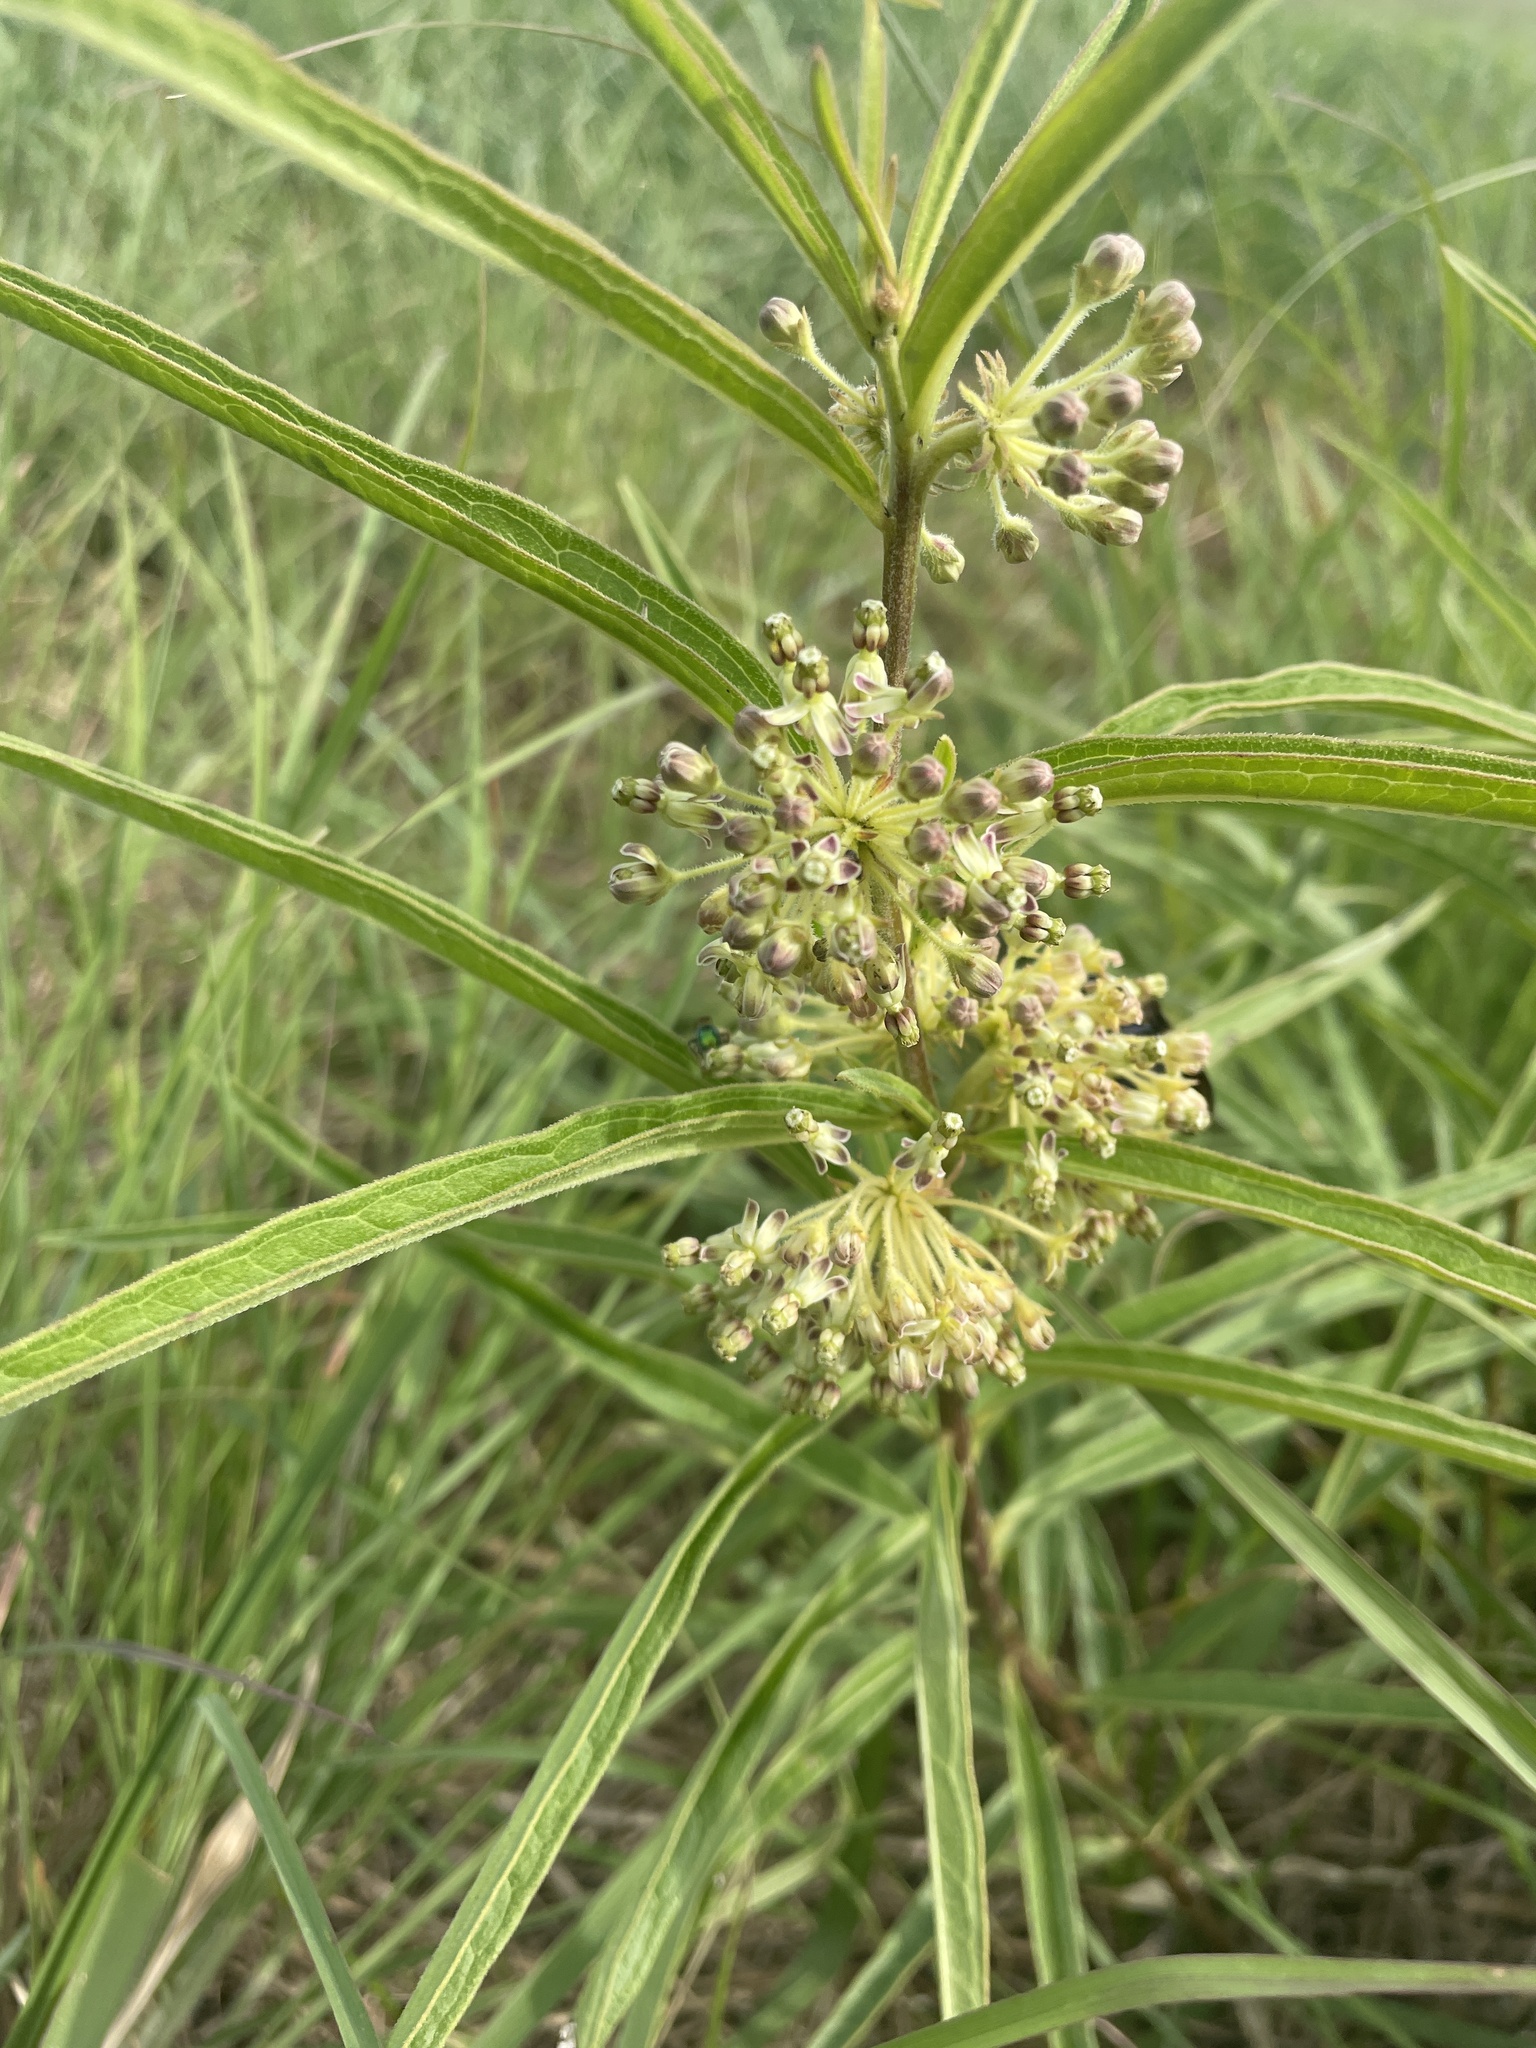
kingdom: Plantae
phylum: Tracheophyta
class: Magnoliopsida
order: Gentianales
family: Apocynaceae
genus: Asclepias
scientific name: Asclepias hirtella
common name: Prairie milkweed
